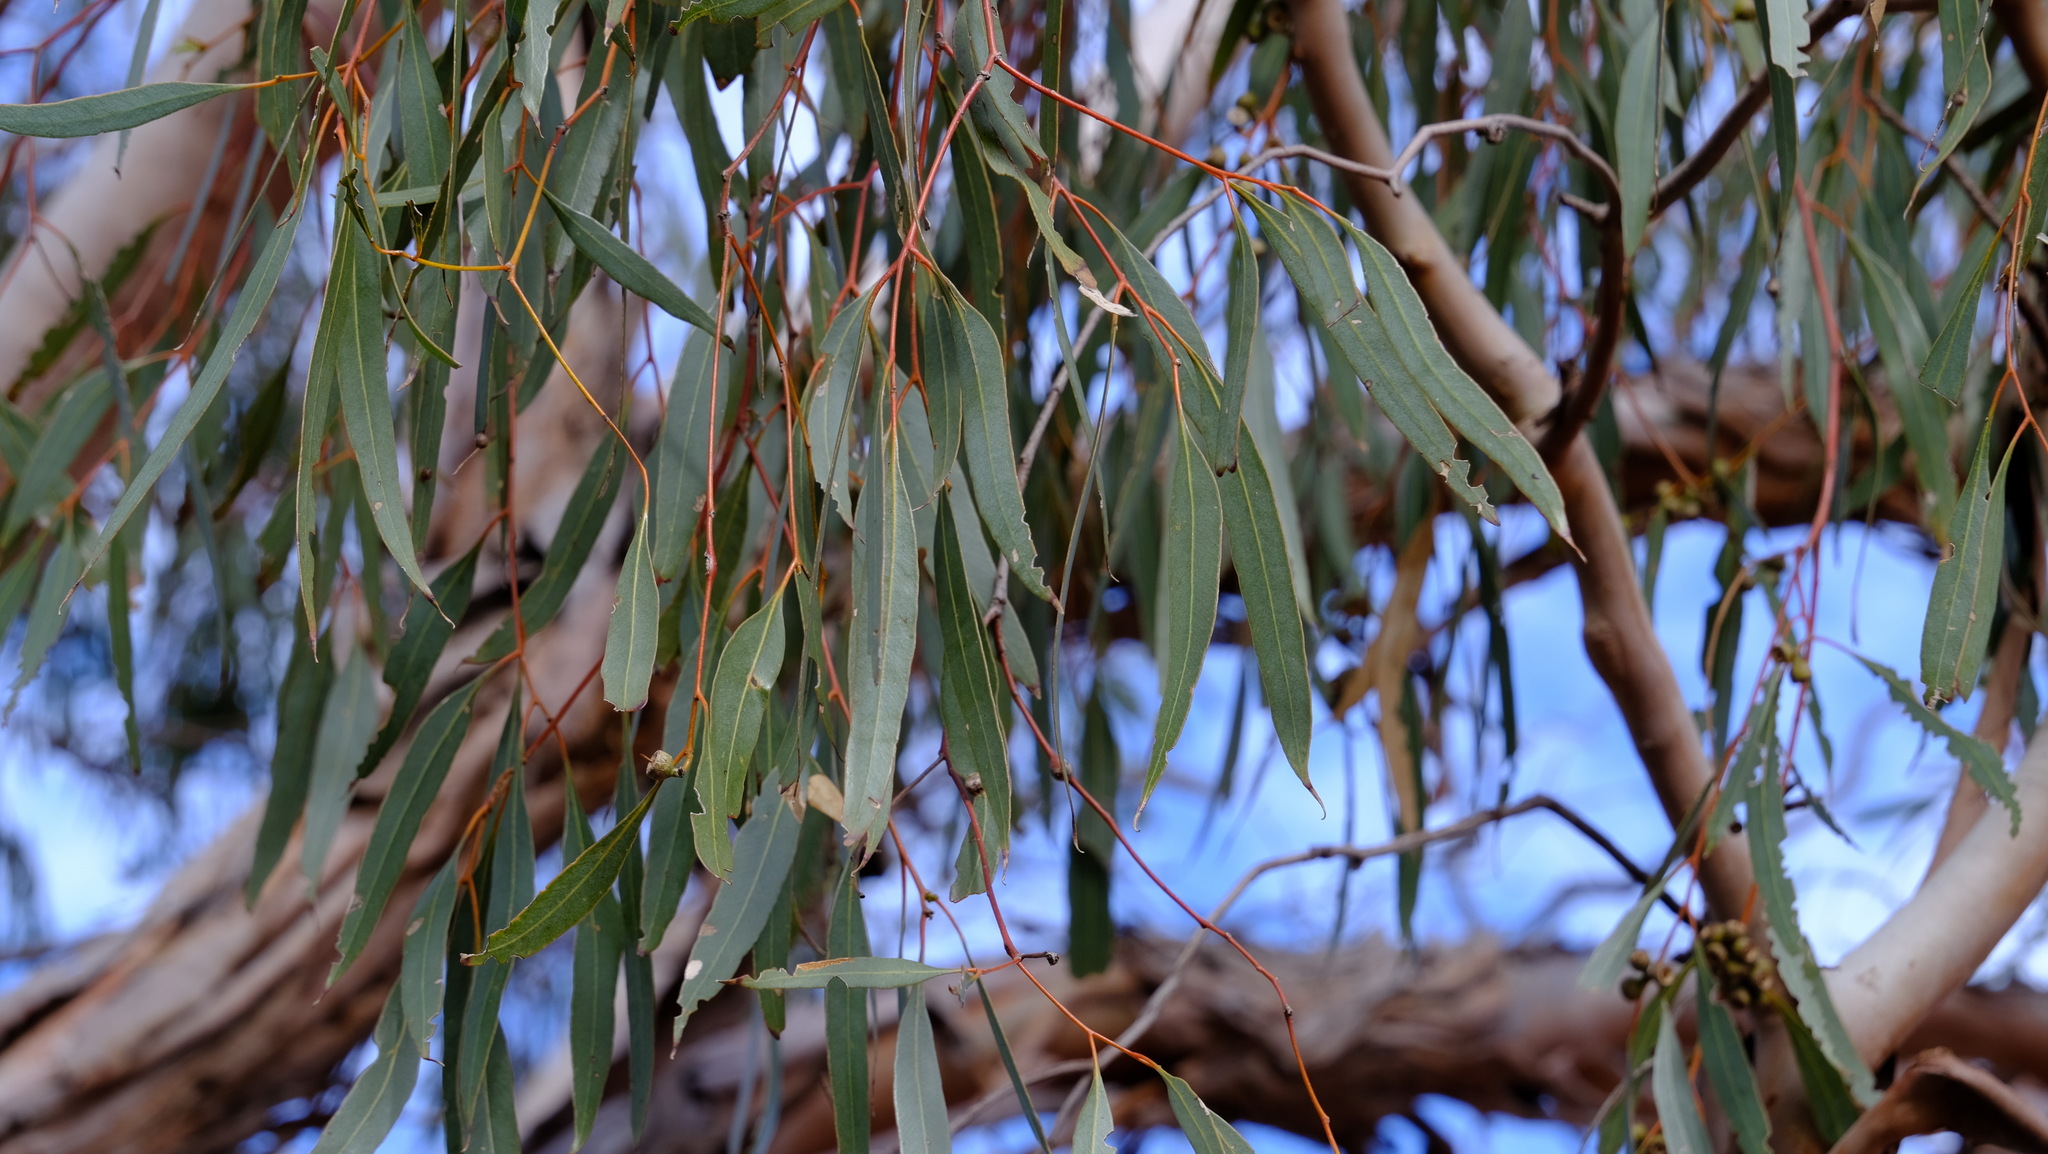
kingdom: Plantae
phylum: Tracheophyta
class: Magnoliopsida
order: Myrtales
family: Myrtaceae
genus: Eucalyptus
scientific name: Eucalyptus mannensis
